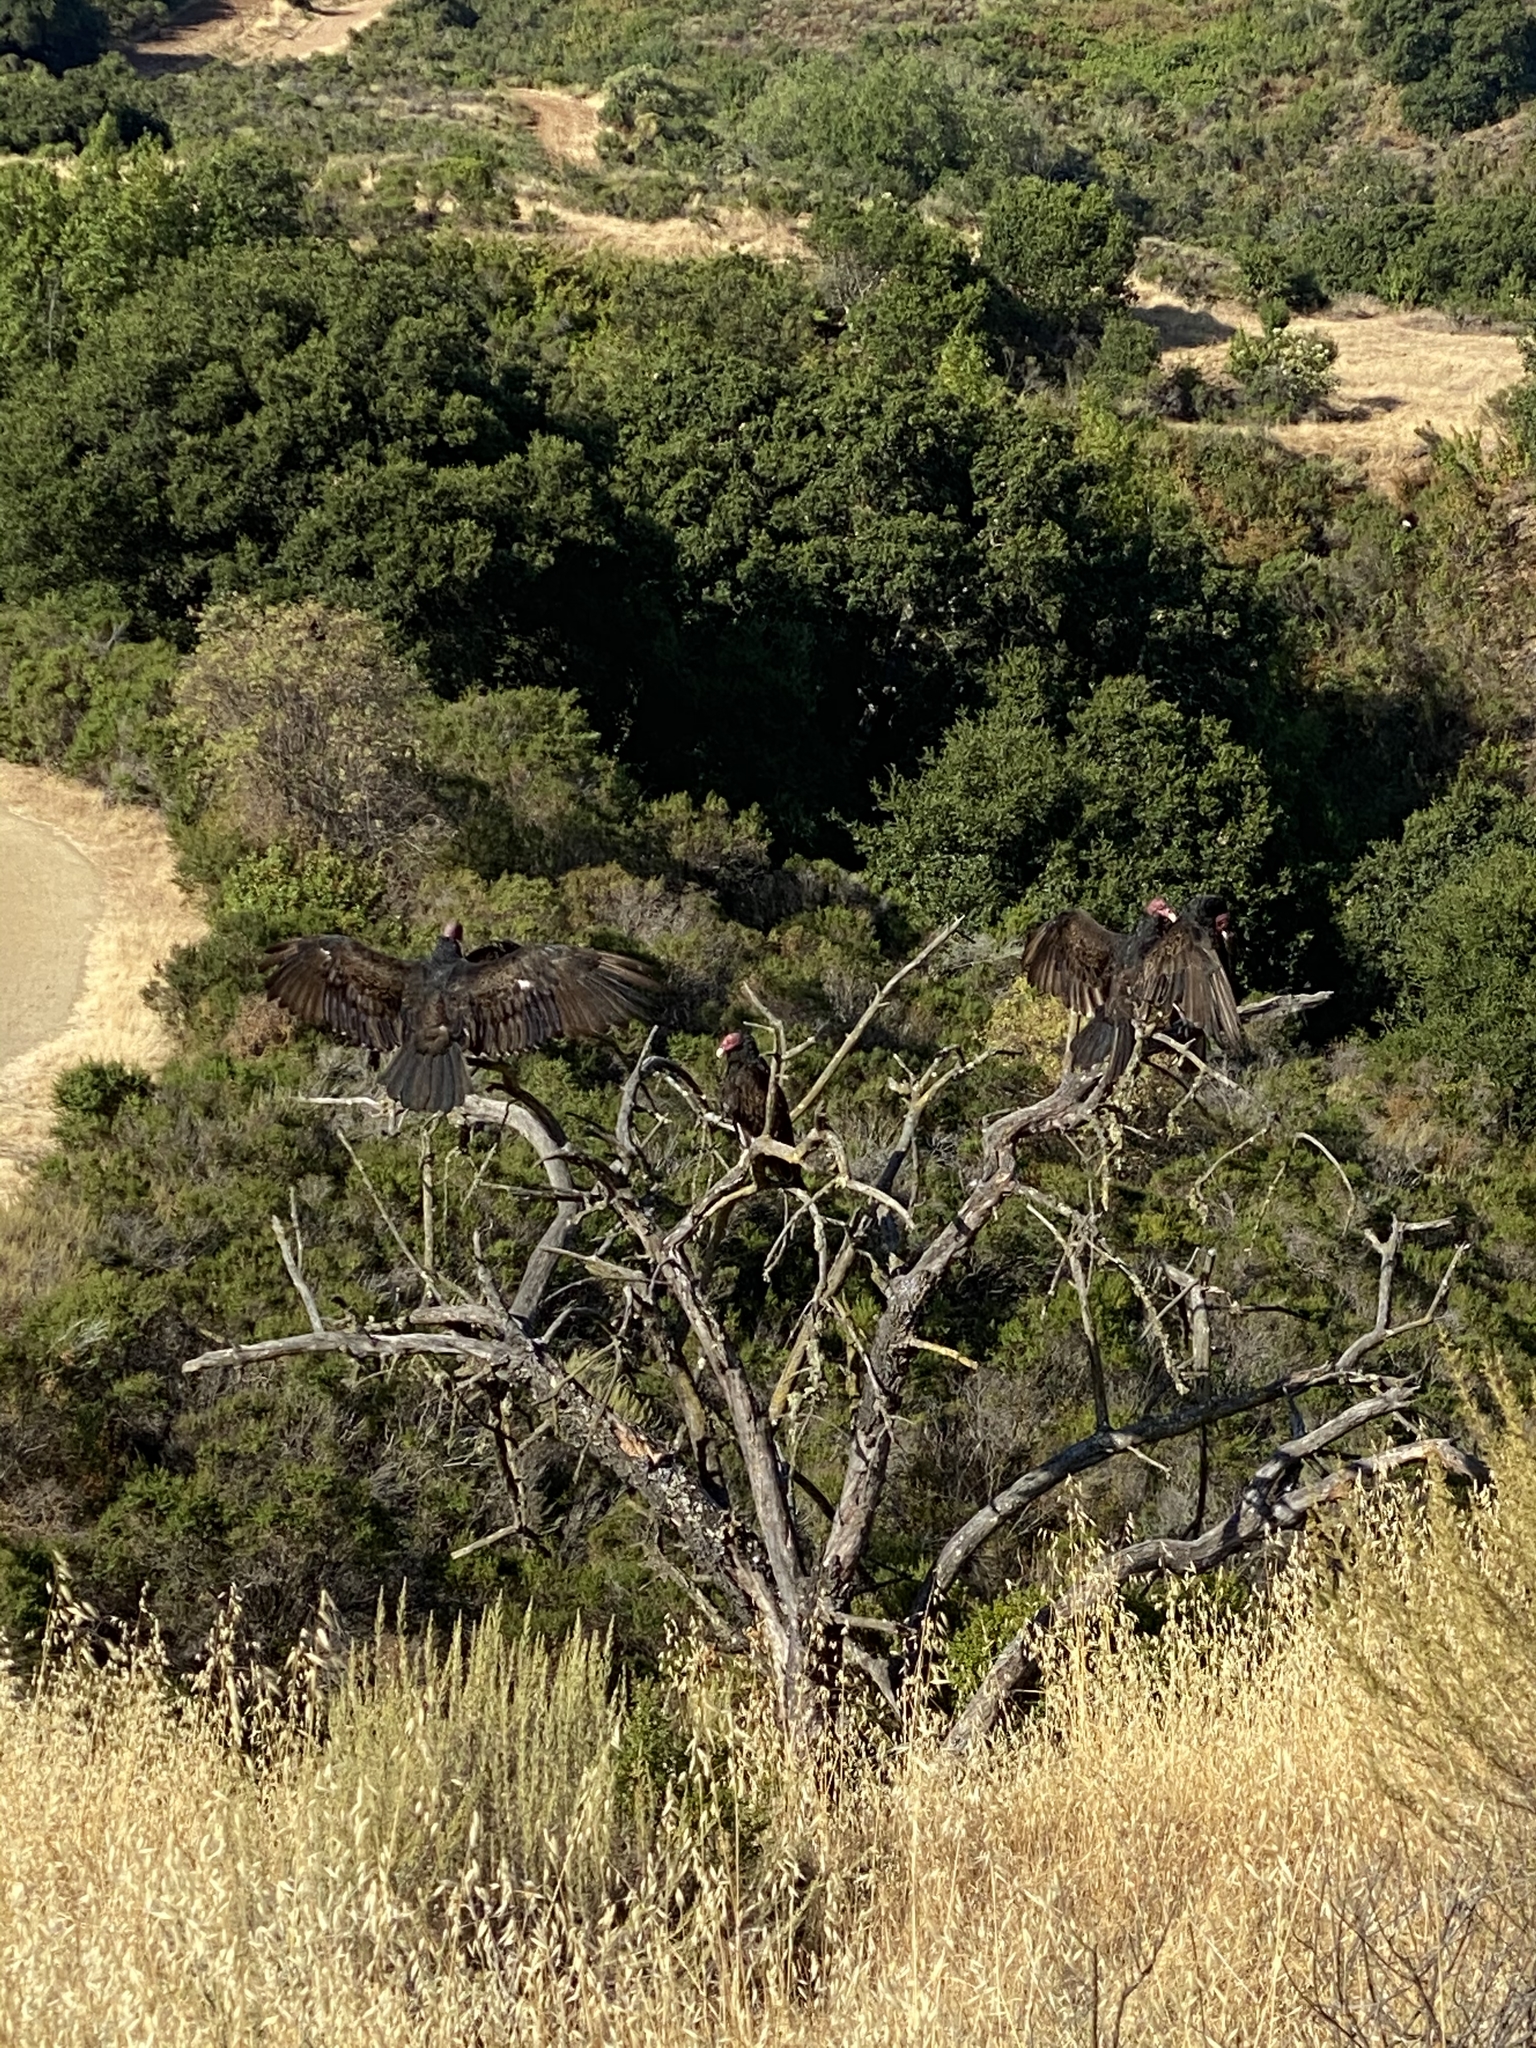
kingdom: Animalia
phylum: Chordata
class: Aves
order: Accipitriformes
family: Cathartidae
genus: Cathartes
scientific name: Cathartes aura
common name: Turkey vulture
